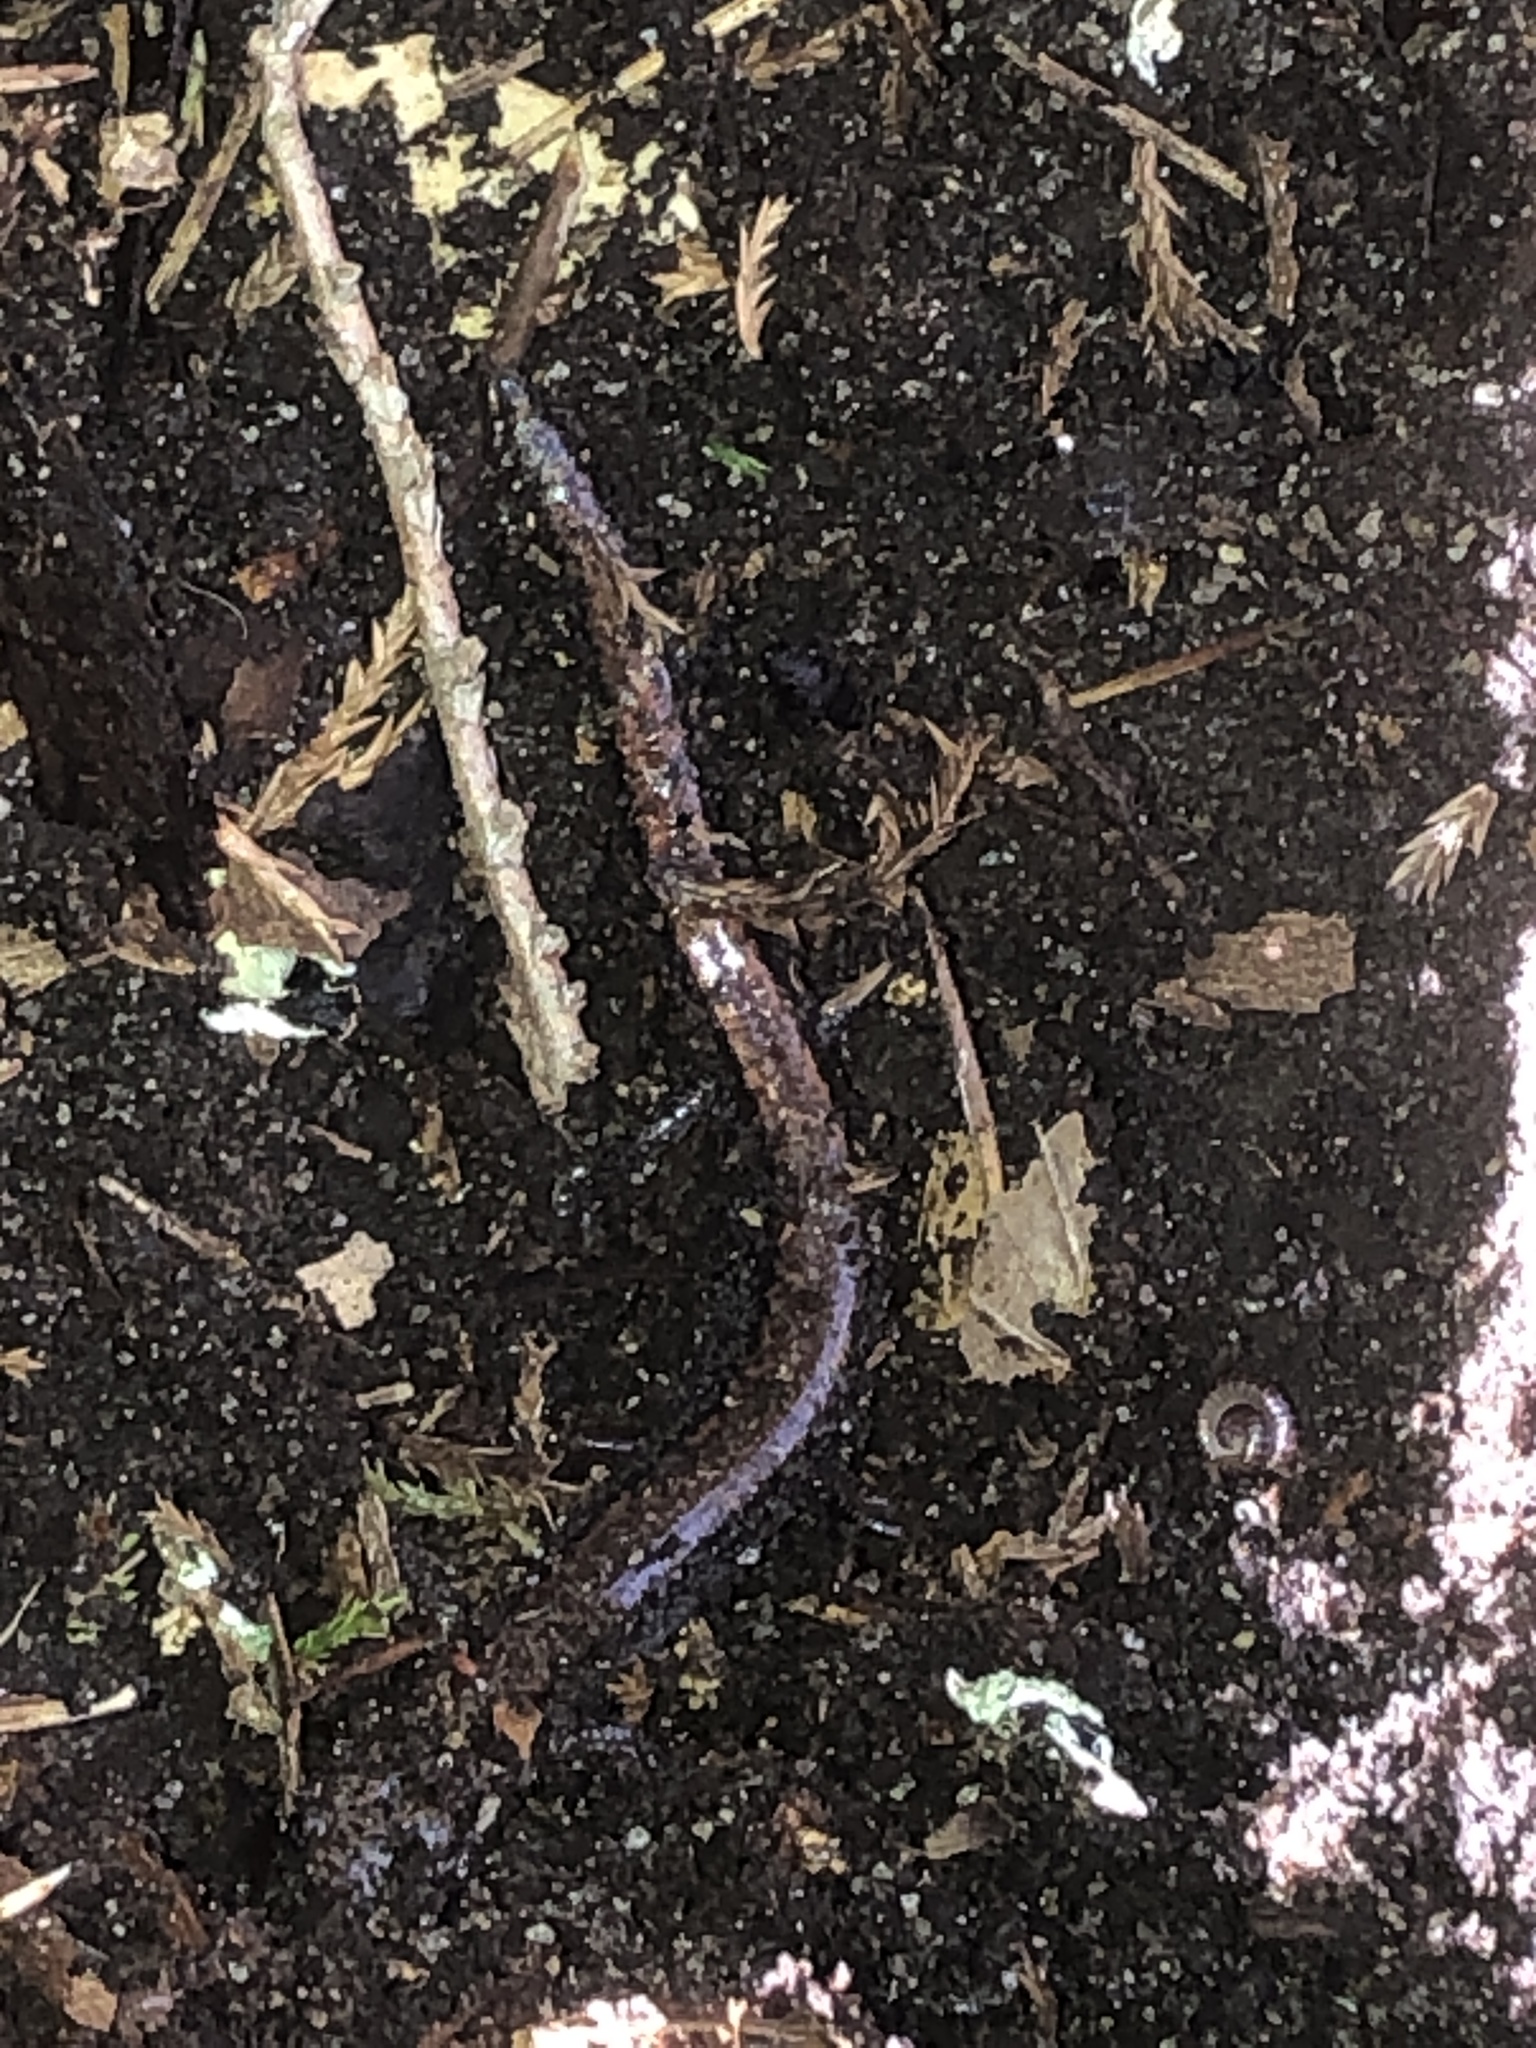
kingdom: Animalia
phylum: Chordata
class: Amphibia
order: Caudata
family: Plethodontidae
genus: Plethodon
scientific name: Plethodon cinereus
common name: Redback salamander
